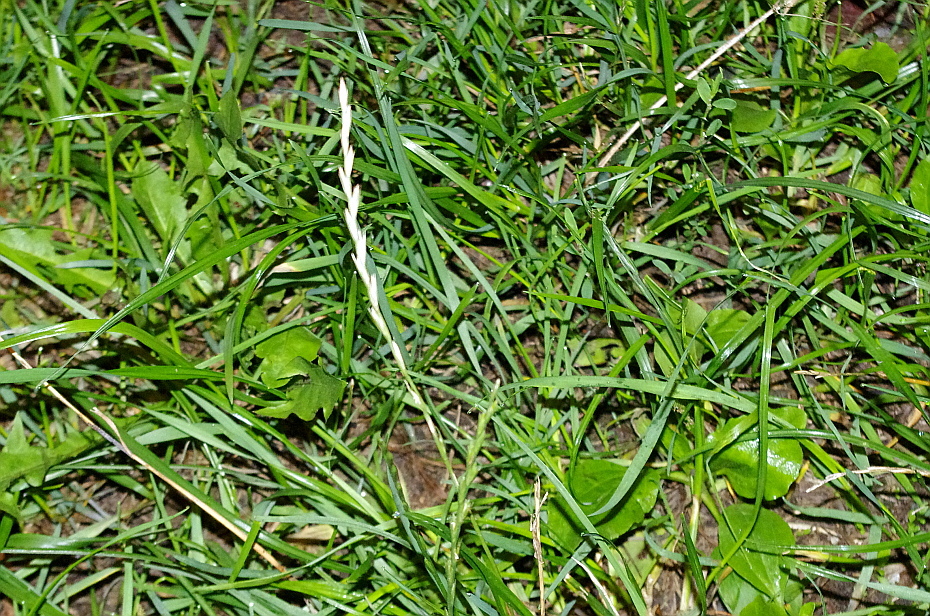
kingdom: Plantae
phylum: Tracheophyta
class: Liliopsida
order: Poales
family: Poaceae
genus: Lolium
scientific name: Lolium perenne
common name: Perennial ryegrass
